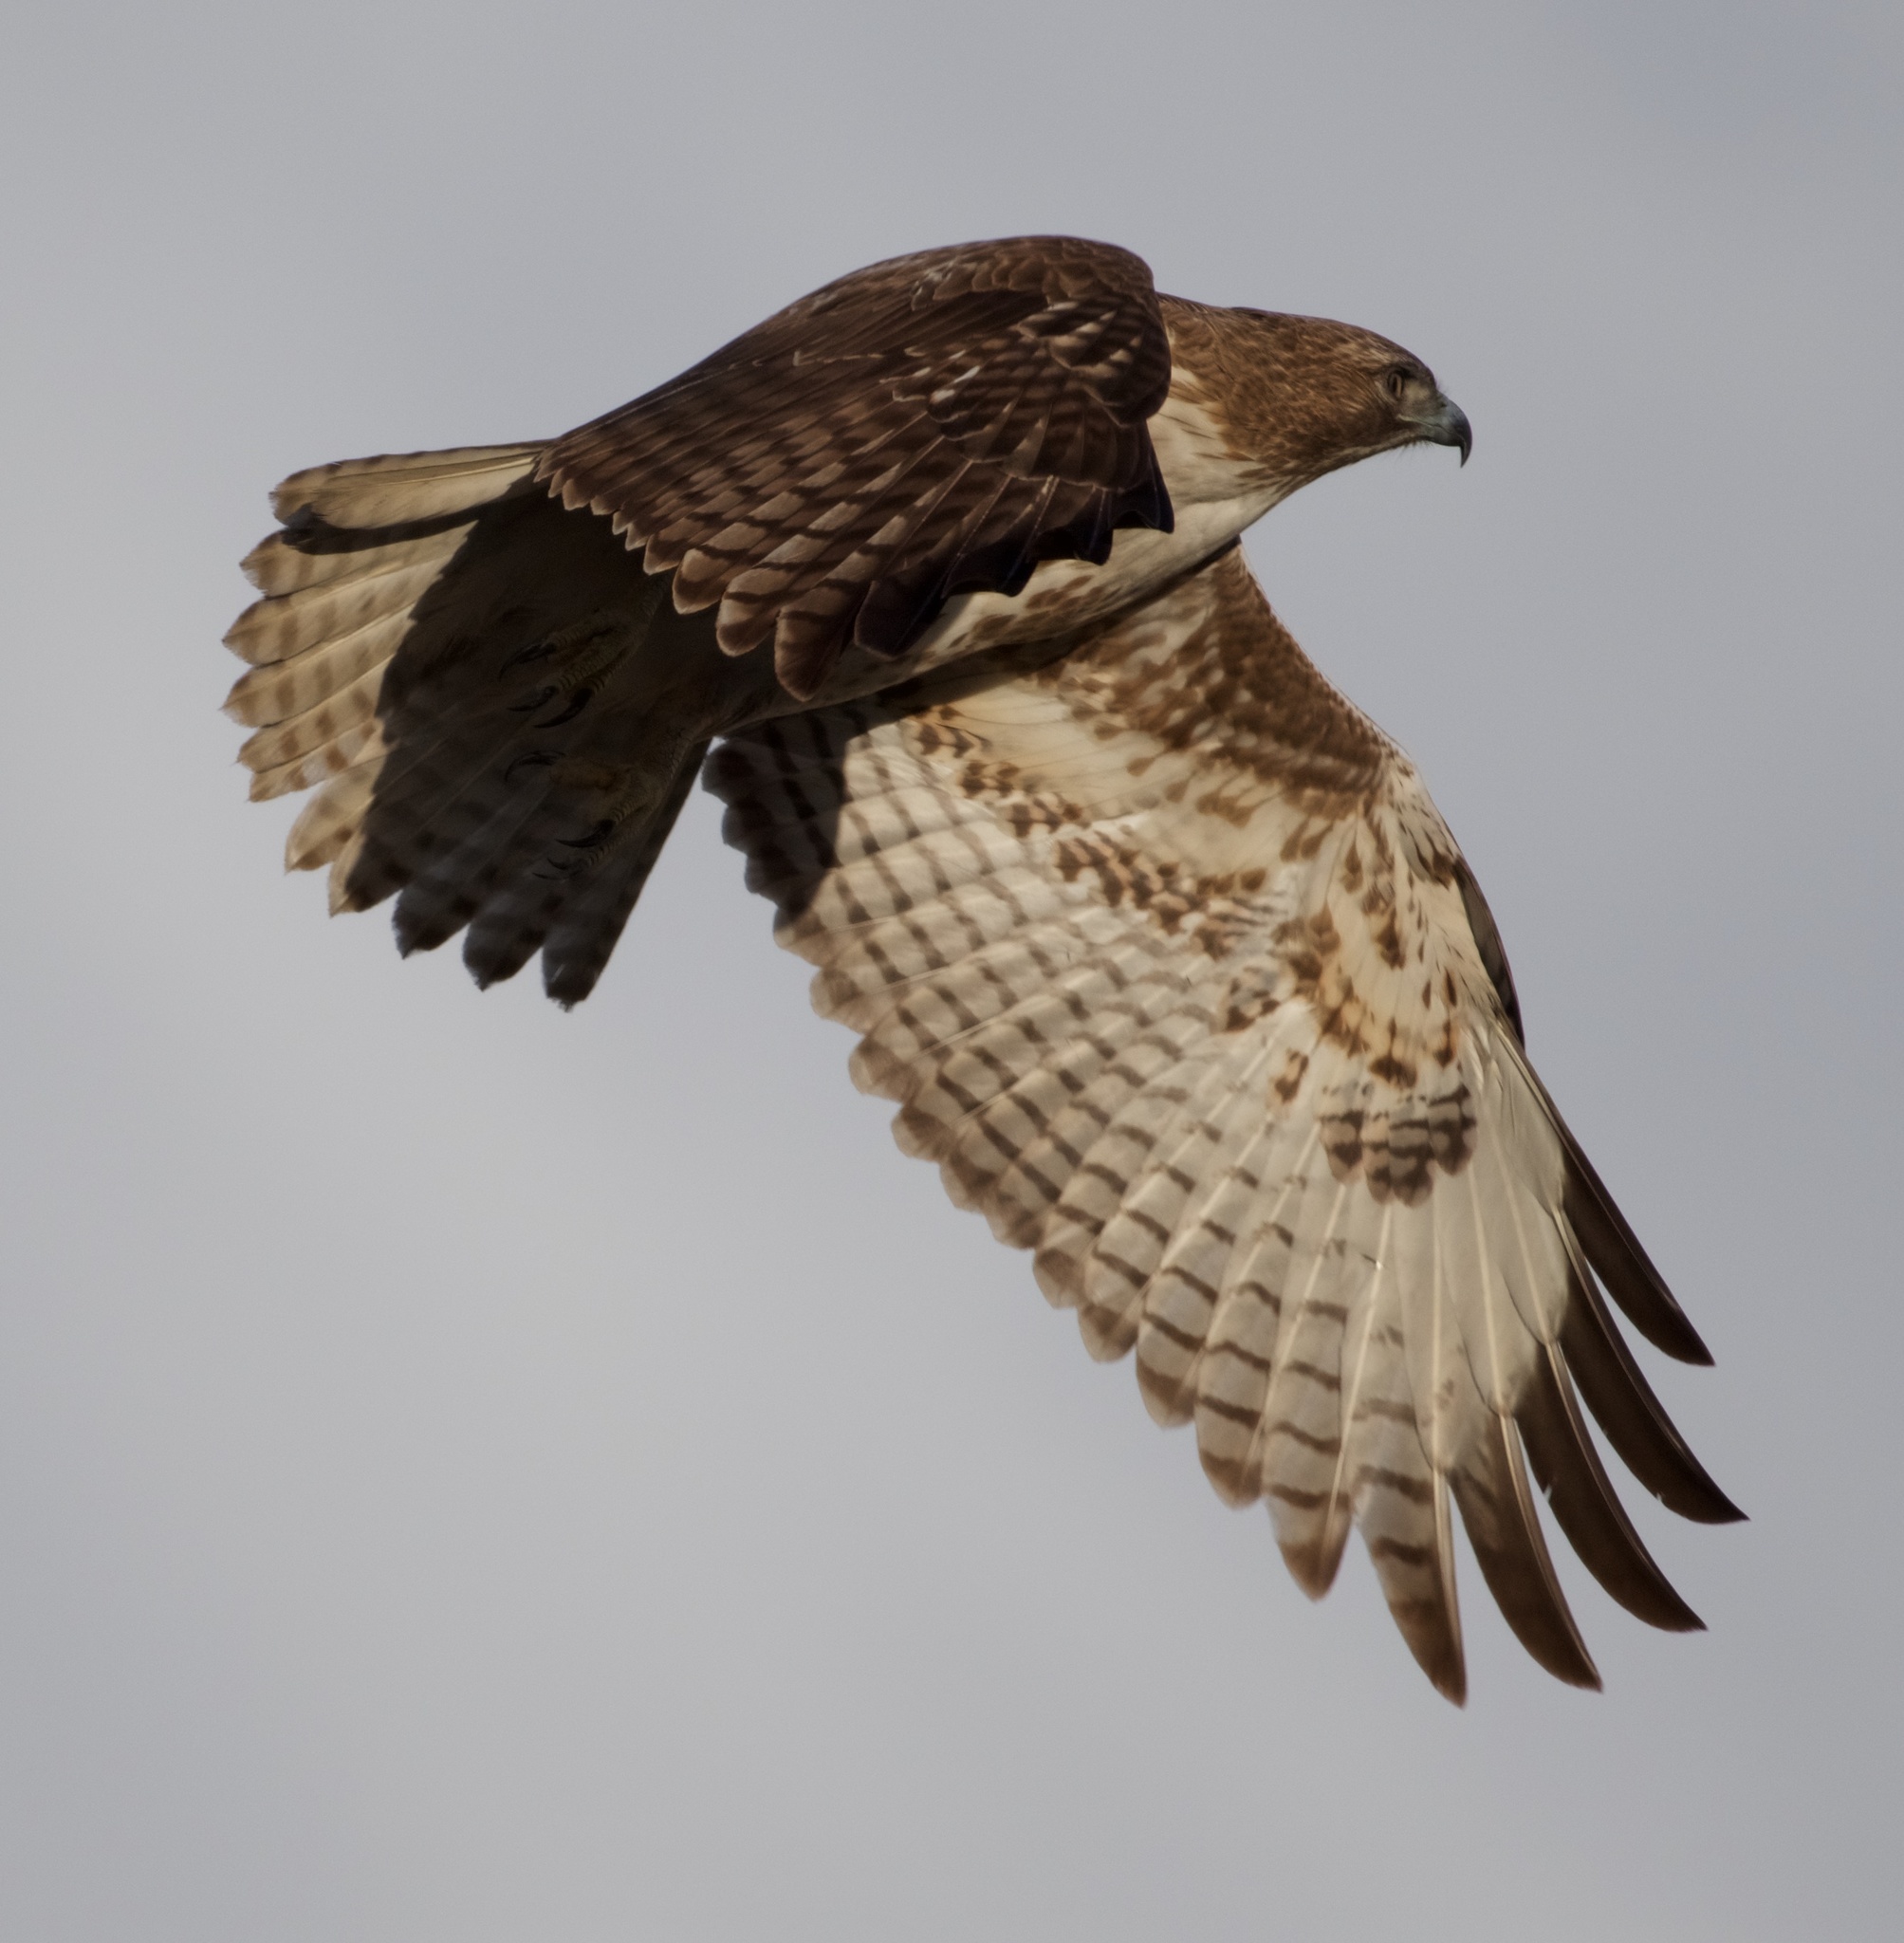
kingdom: Animalia
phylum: Chordata
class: Aves
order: Accipitriformes
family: Accipitridae
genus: Buteo
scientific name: Buteo jamaicensis
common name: Red-tailed hawk
